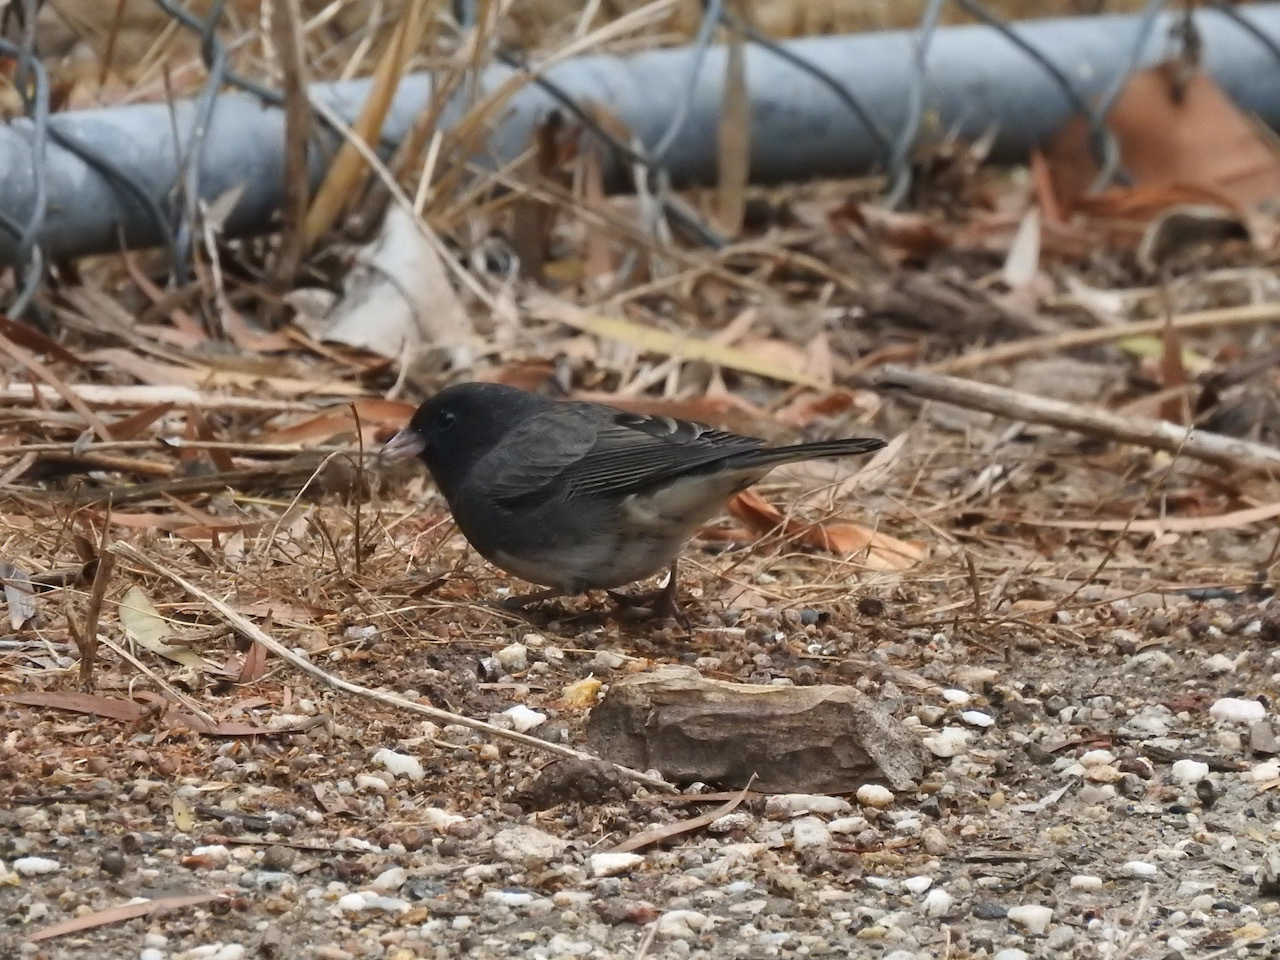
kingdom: Animalia
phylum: Chordata
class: Aves
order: Passeriformes
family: Passerellidae
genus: Junco
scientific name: Junco hyemalis
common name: Dark-eyed junco
